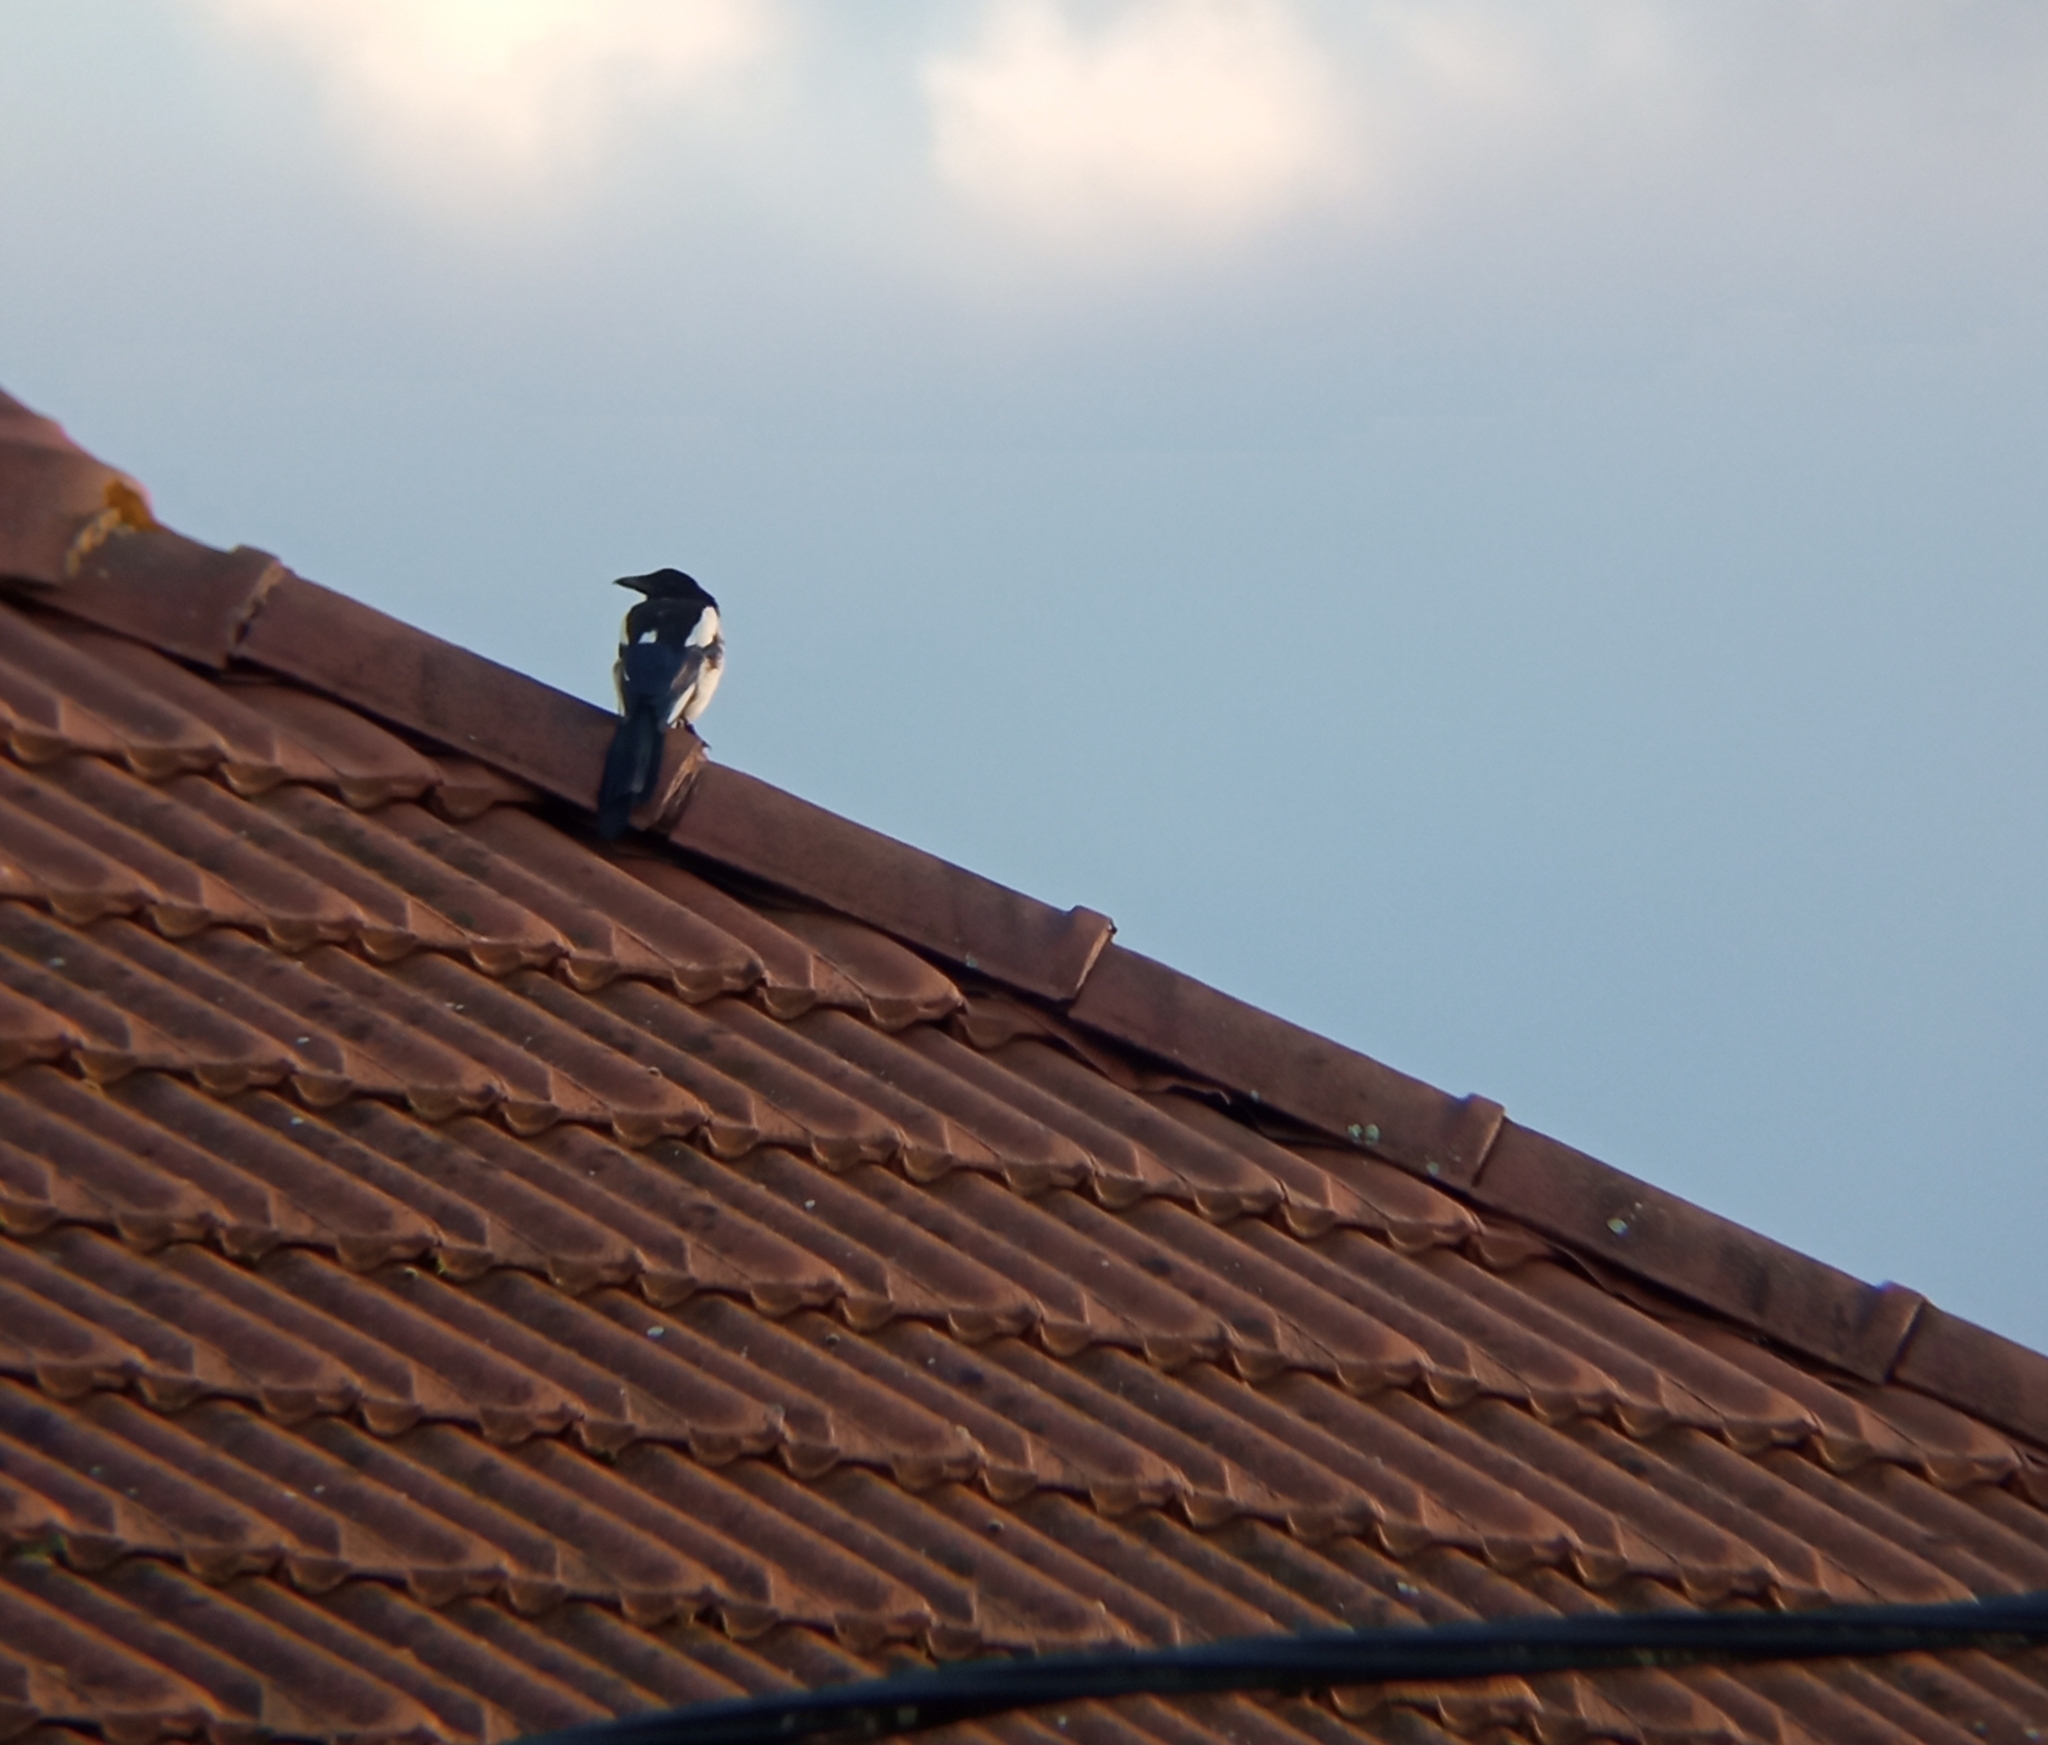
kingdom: Animalia
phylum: Chordata
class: Aves
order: Passeriformes
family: Corvidae
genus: Pica
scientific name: Pica pica
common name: Eurasian magpie
